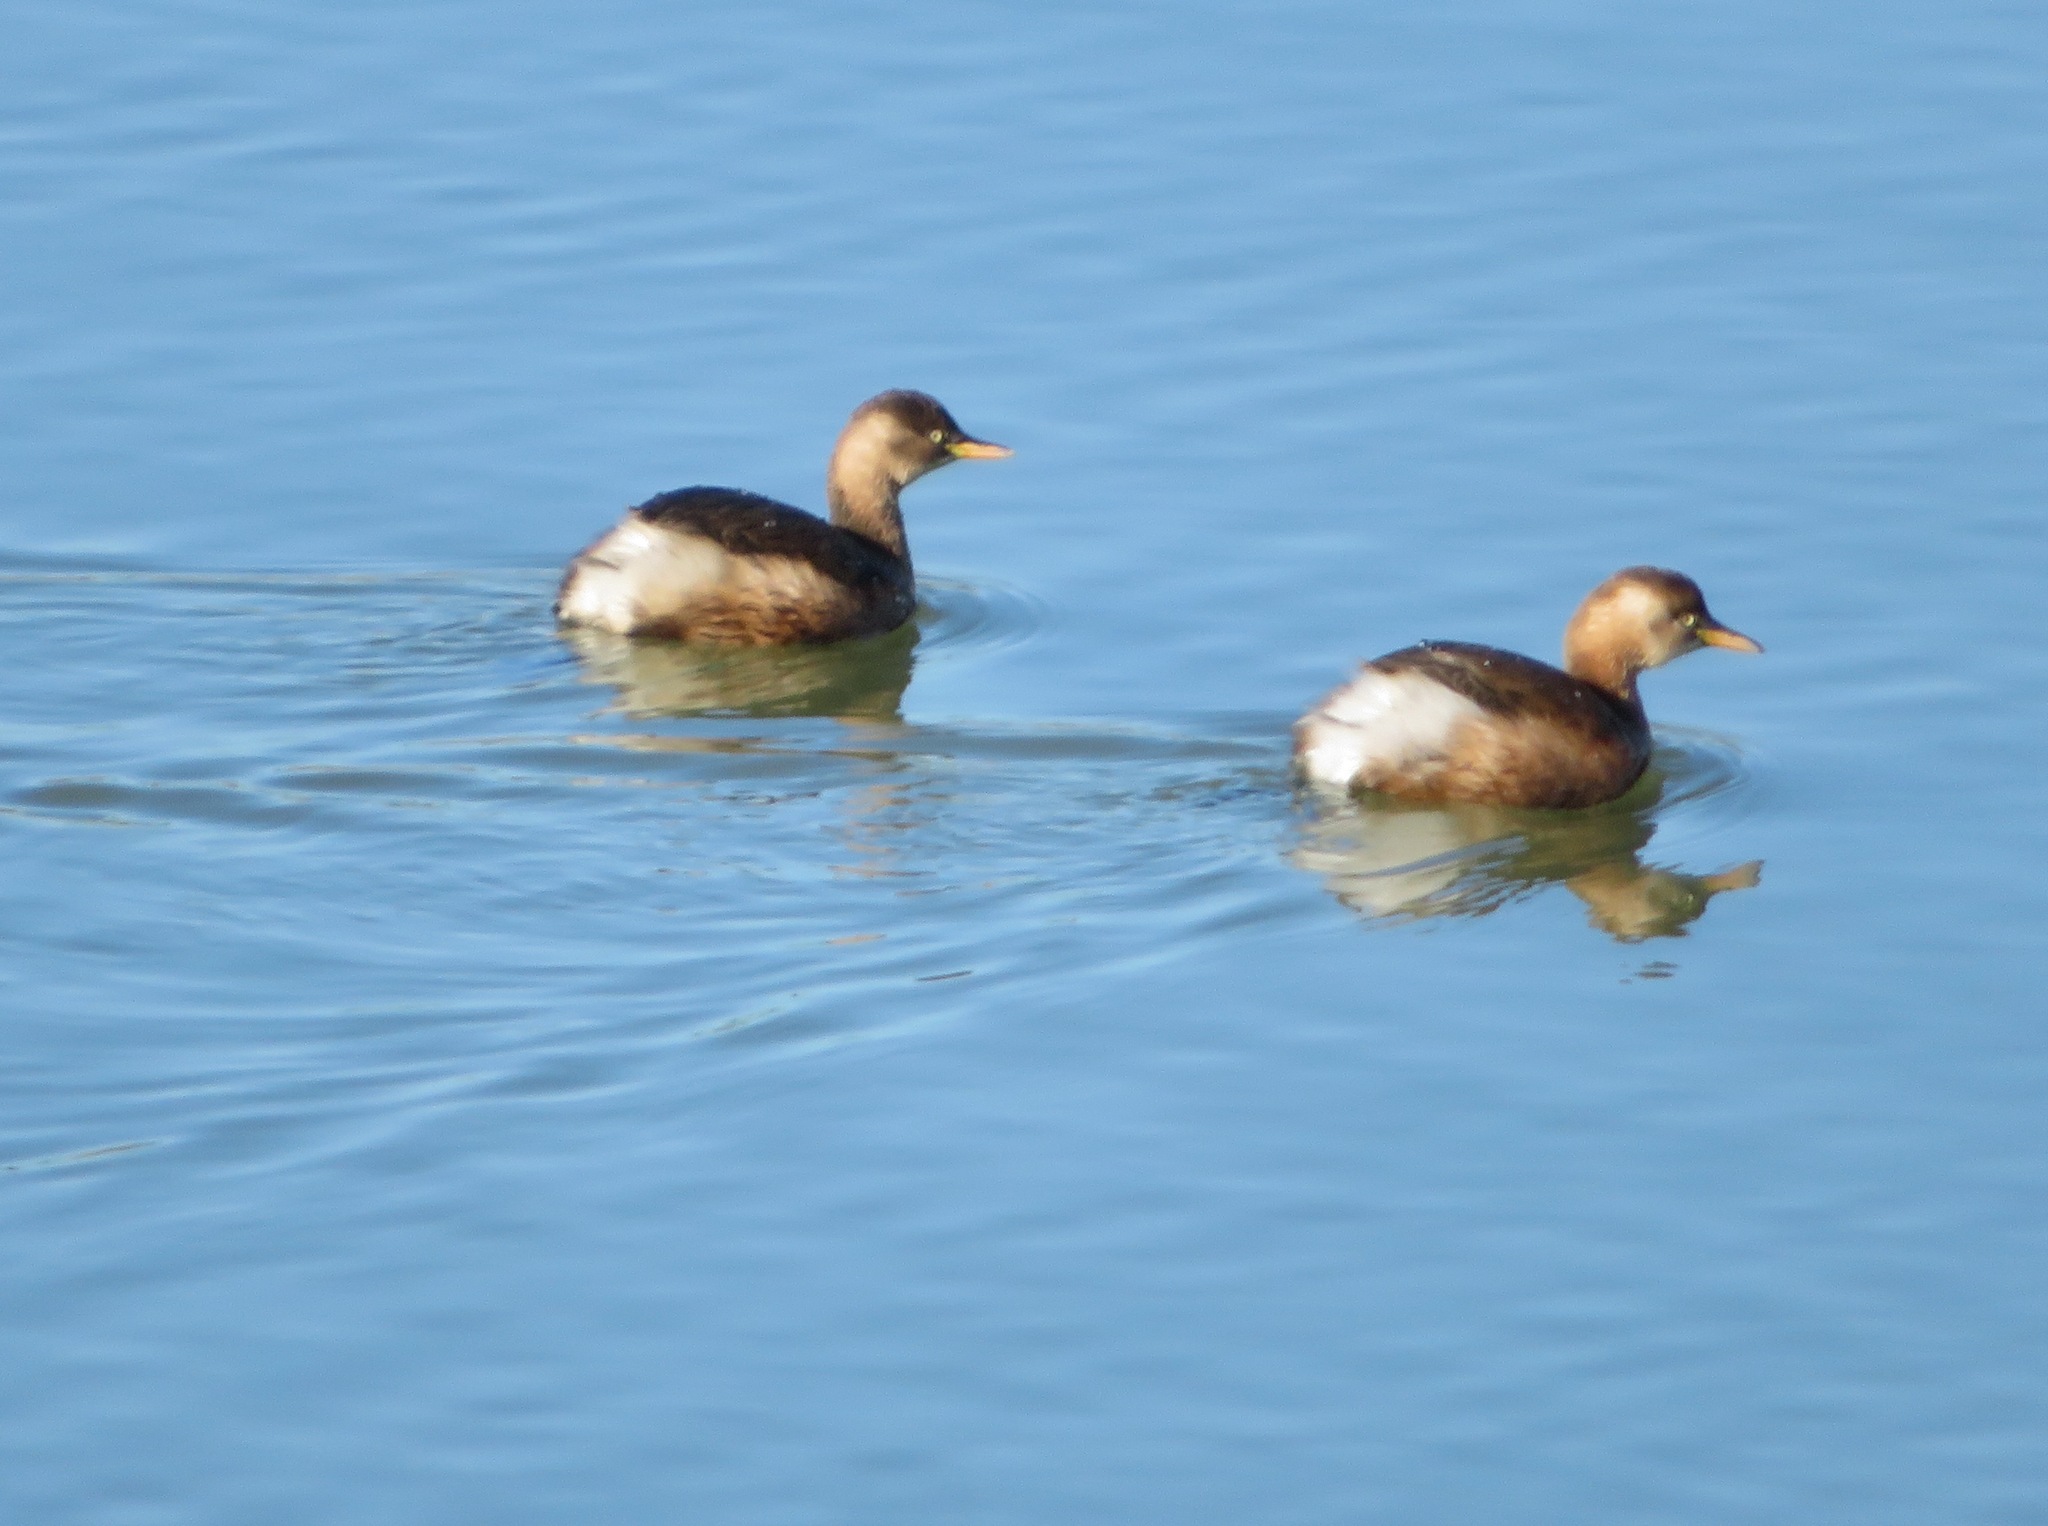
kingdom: Animalia
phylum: Chordata
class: Aves
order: Podicipediformes
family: Podicipedidae
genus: Tachybaptus
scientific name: Tachybaptus ruficollis
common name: Little grebe
